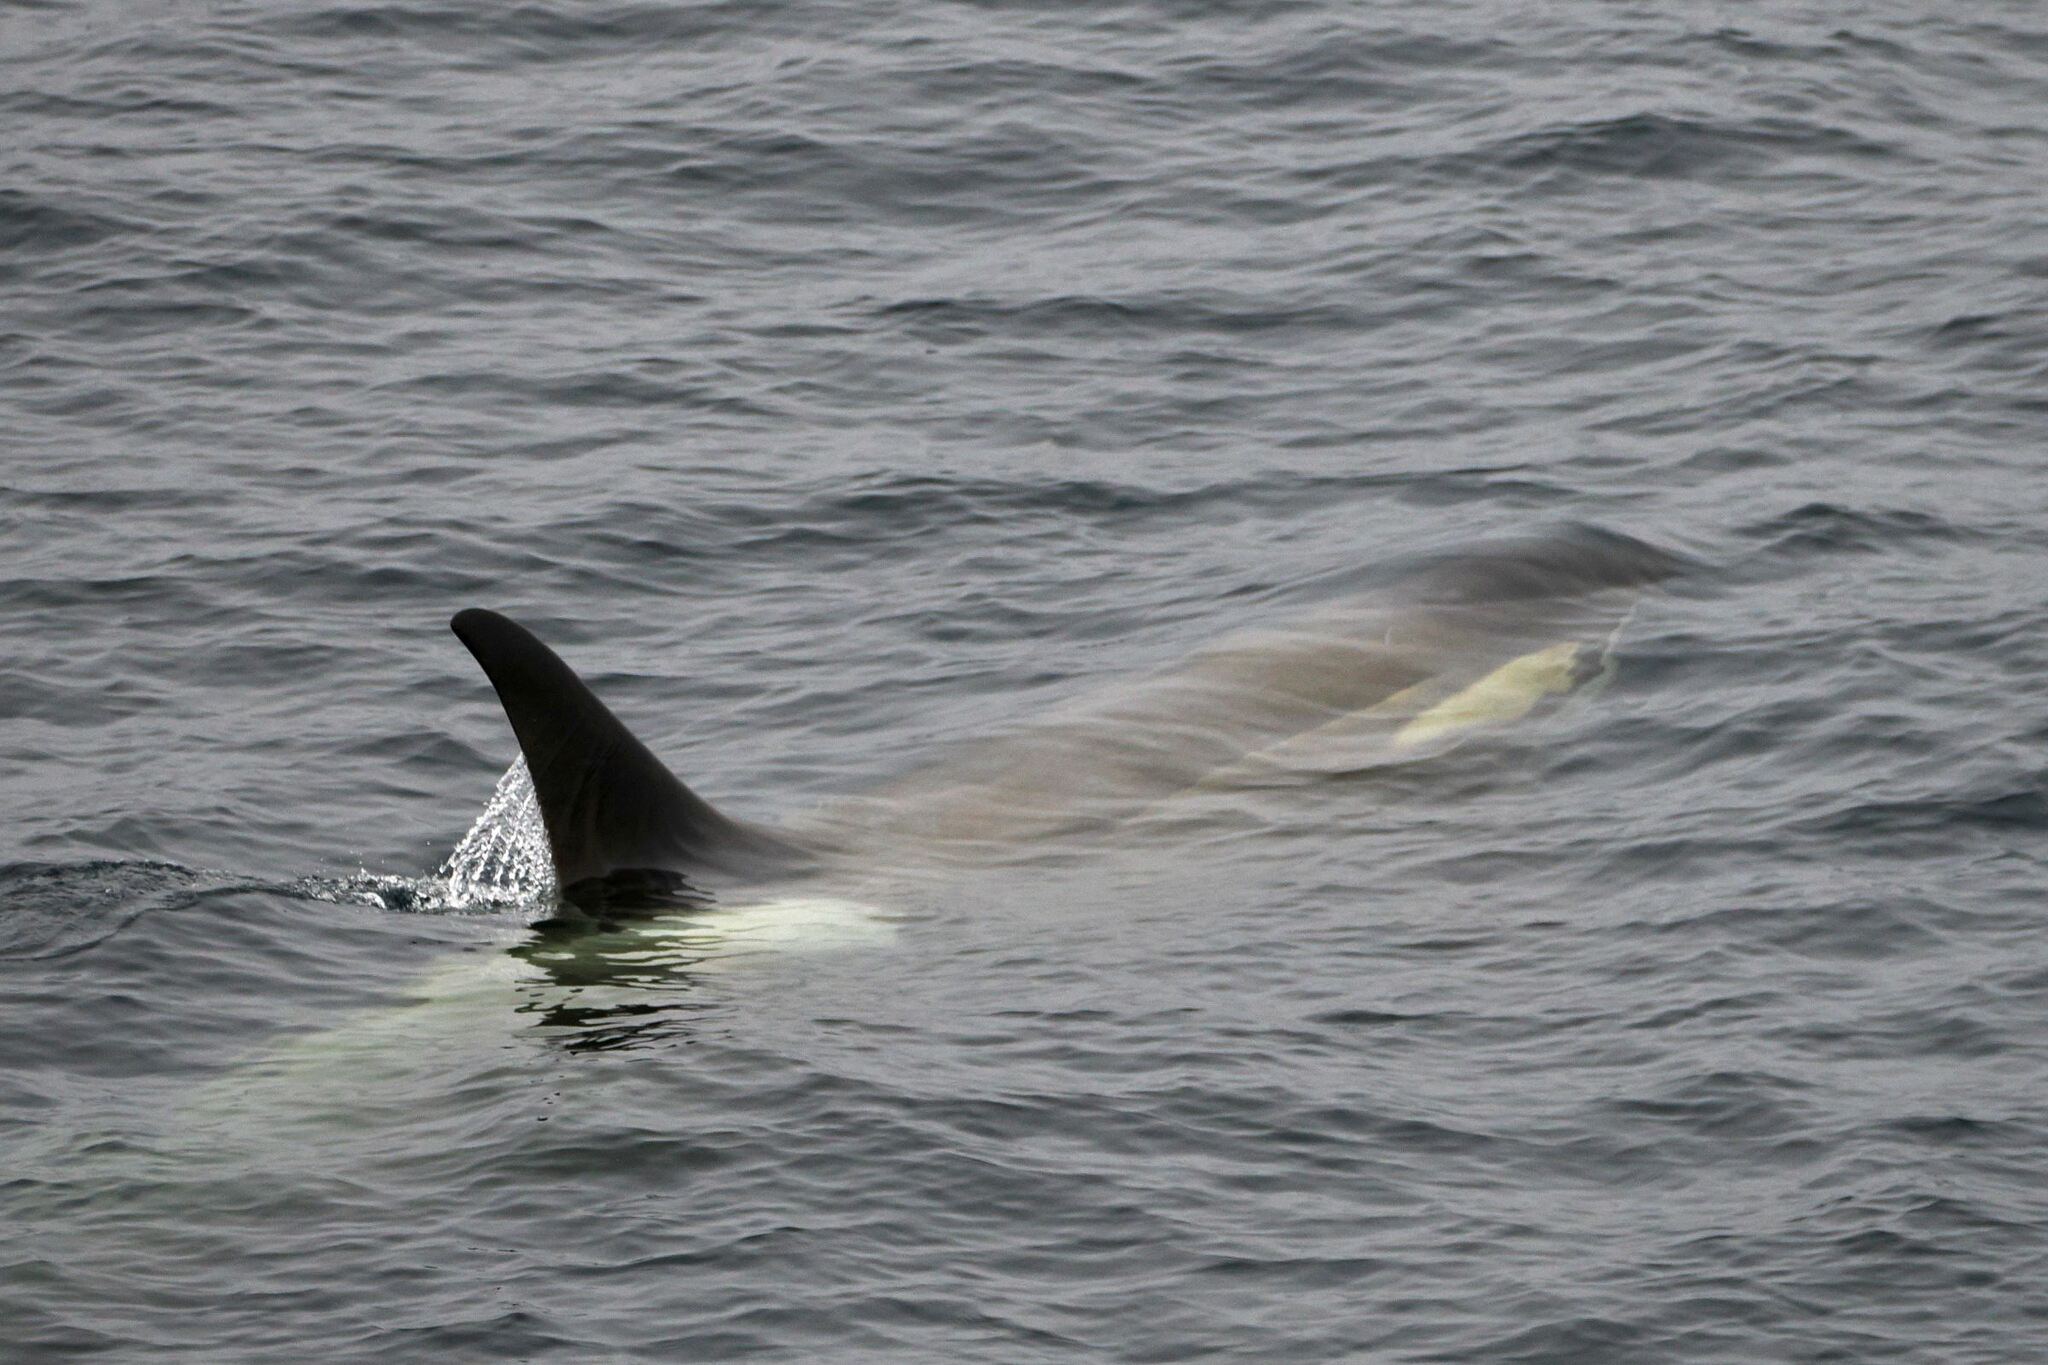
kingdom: Animalia
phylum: Chordata
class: Mammalia
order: Cetacea
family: Delphinidae
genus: Orcinus
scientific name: Orcinus orca
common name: Killer whale
